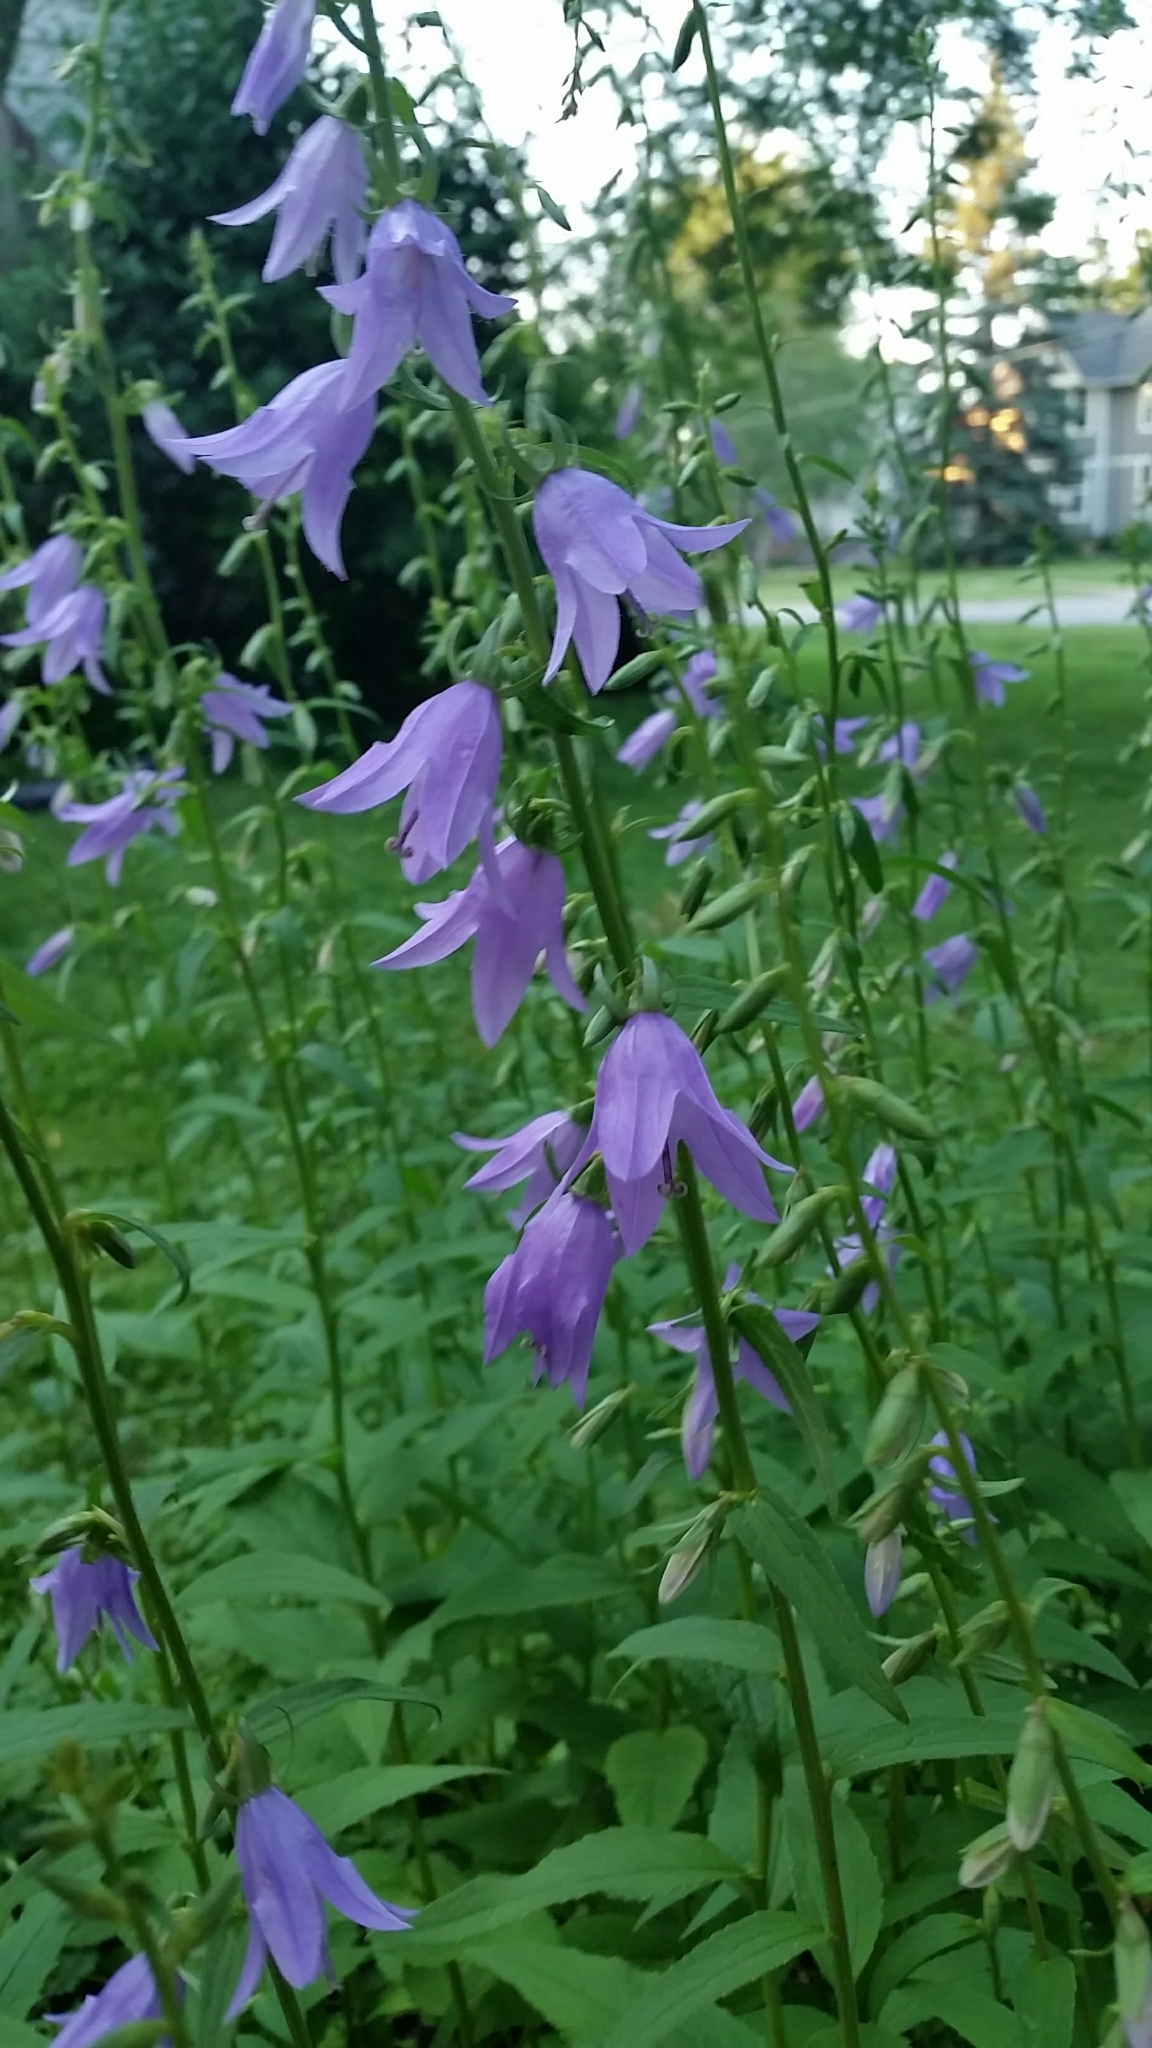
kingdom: Plantae
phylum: Tracheophyta
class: Magnoliopsida
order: Asterales
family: Campanulaceae
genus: Campanula
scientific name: Campanula rapunculoides
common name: Creeping bellflower
